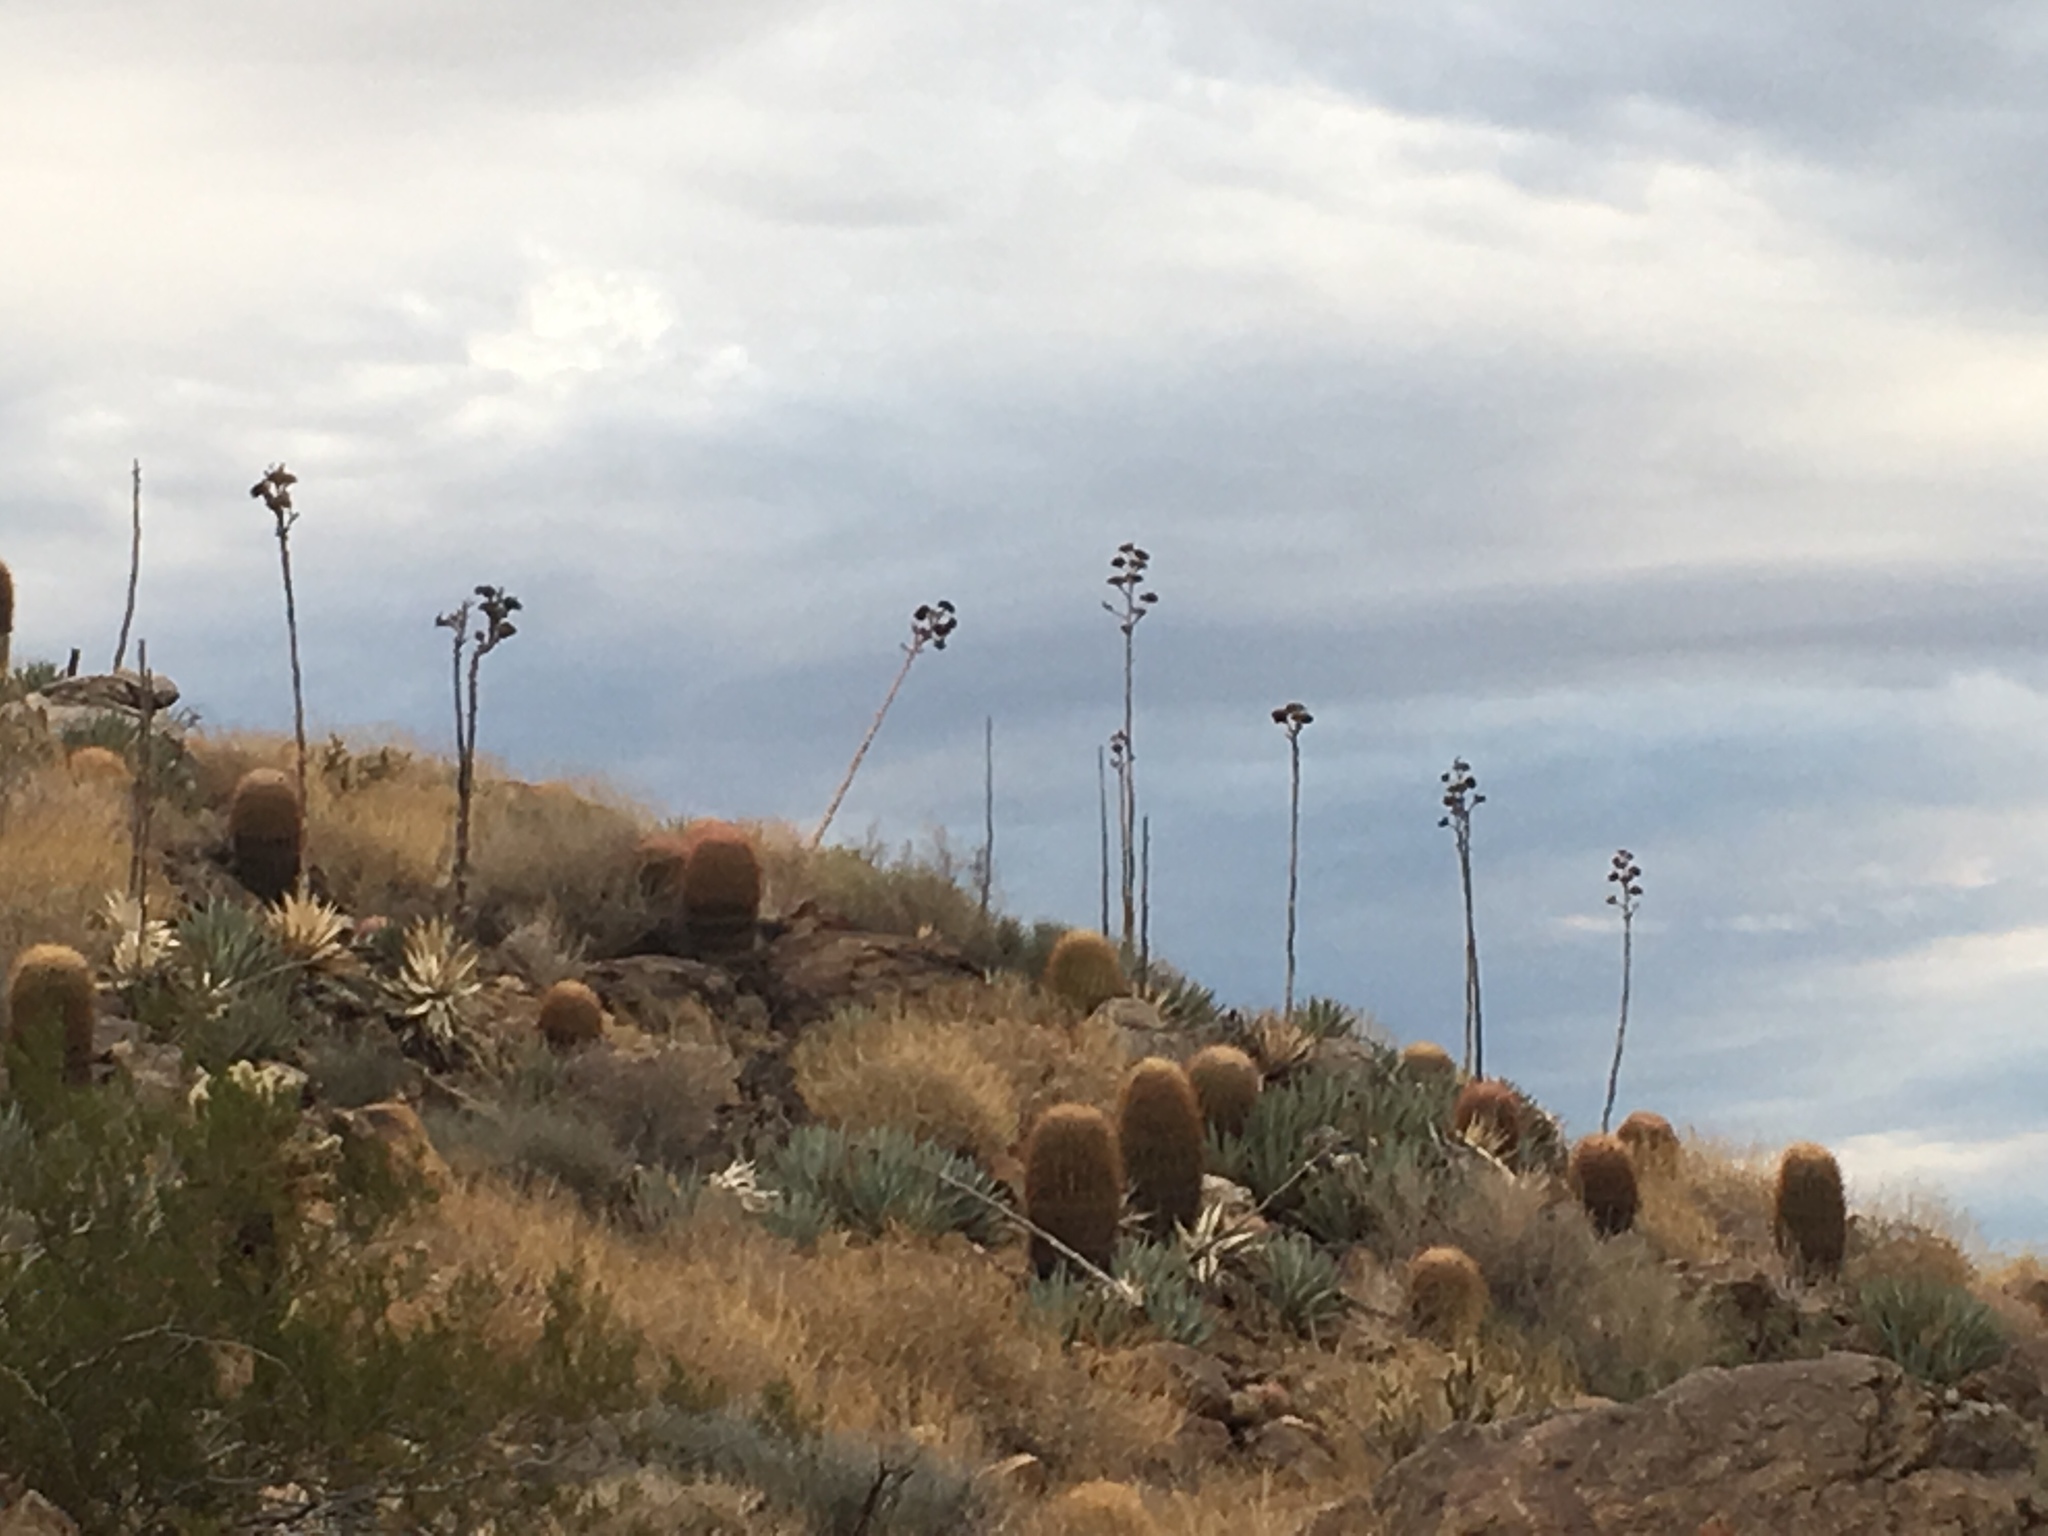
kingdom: Plantae
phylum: Tracheophyta
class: Liliopsida
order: Asparagales
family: Asparagaceae
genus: Agave
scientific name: Agave deserti
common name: Desert agave
